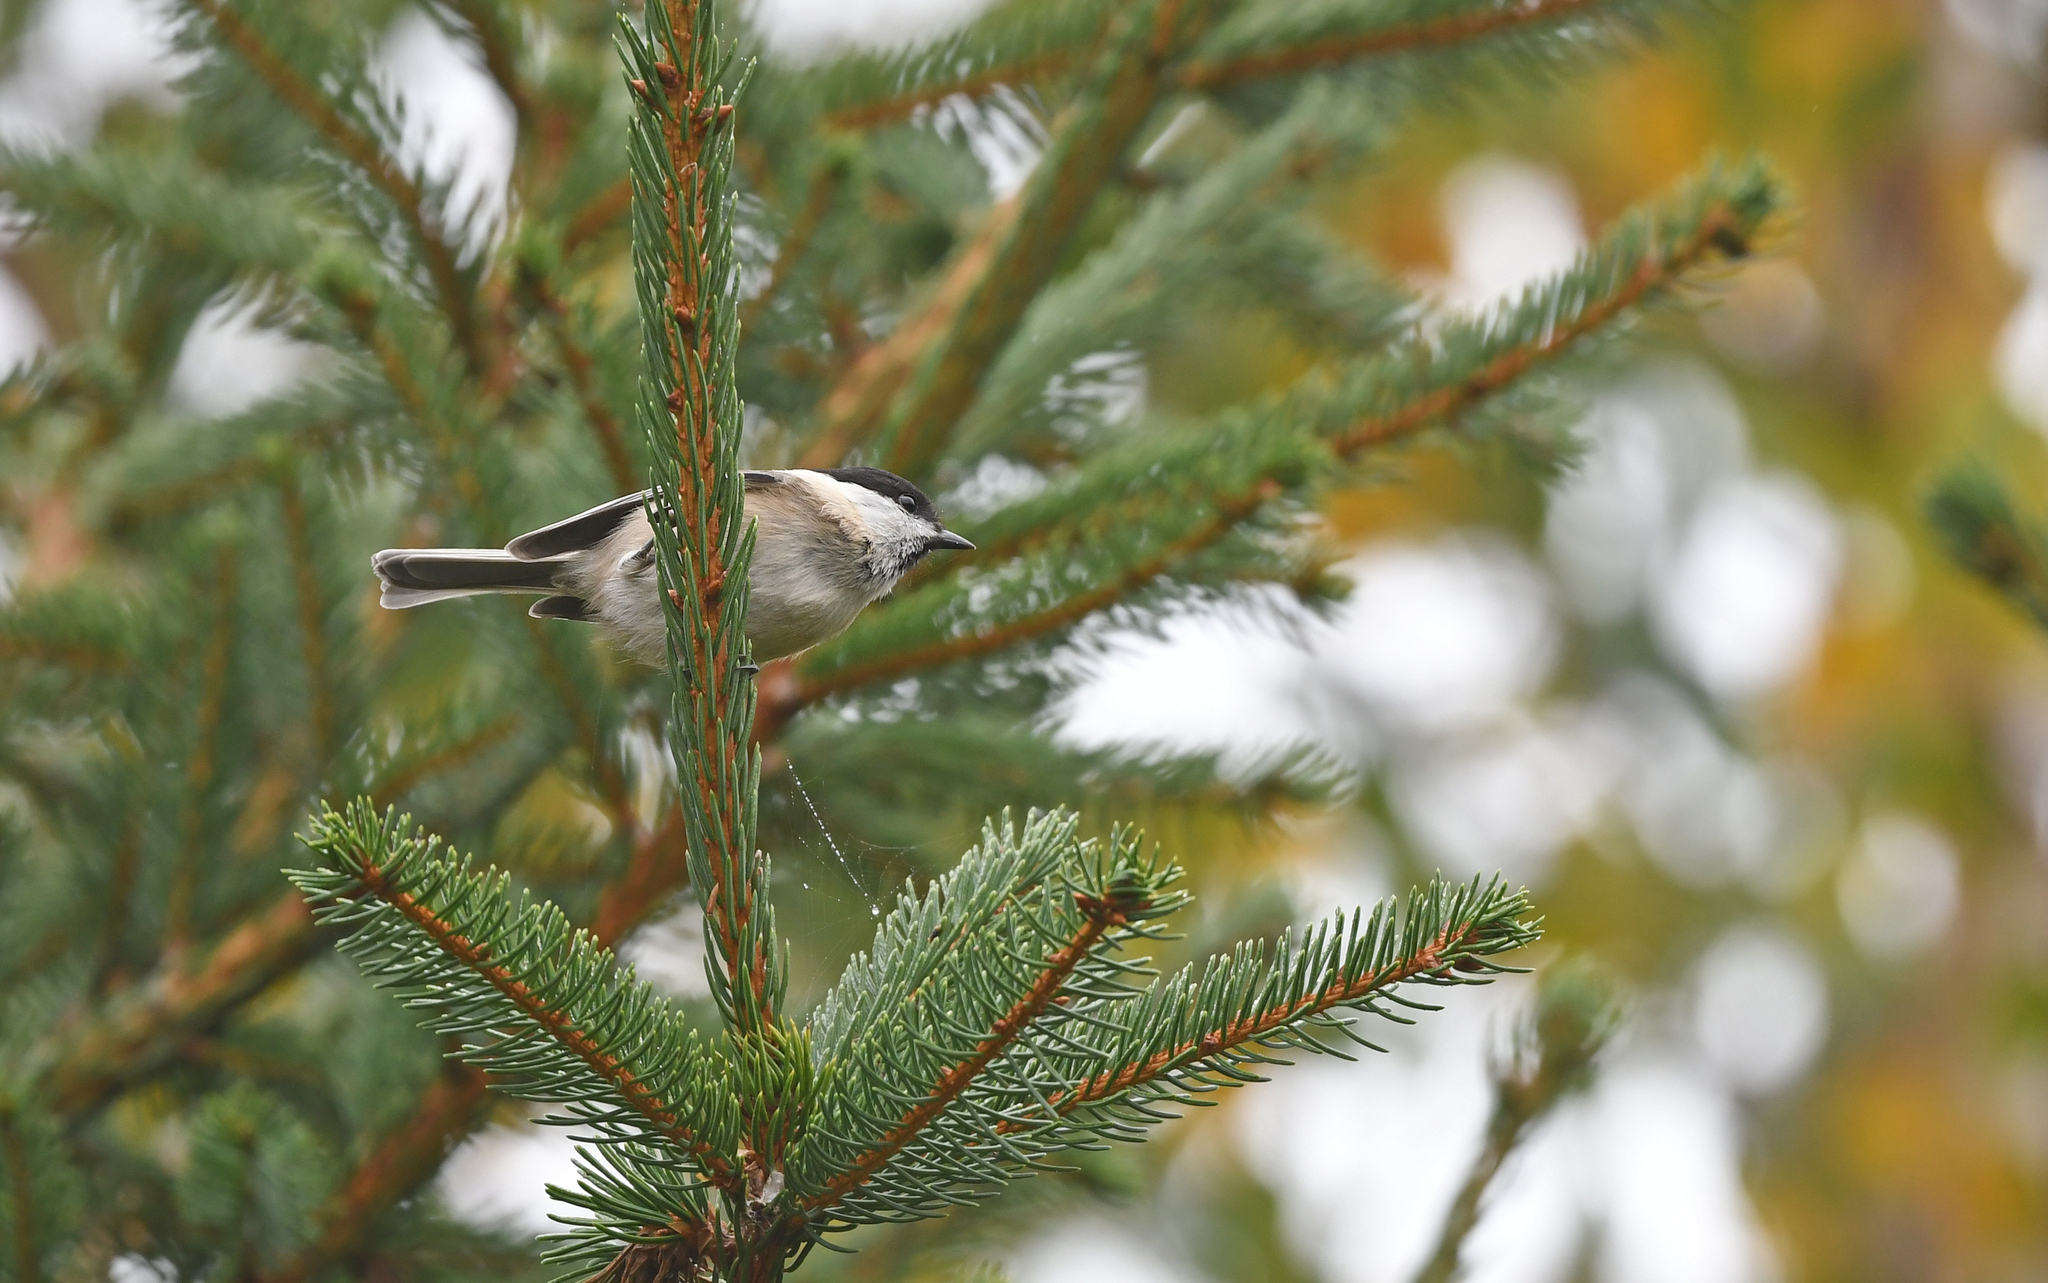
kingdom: Animalia
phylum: Chordata
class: Aves
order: Passeriformes
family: Paridae
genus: Poecile
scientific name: Poecile montanus
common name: Willow tit
